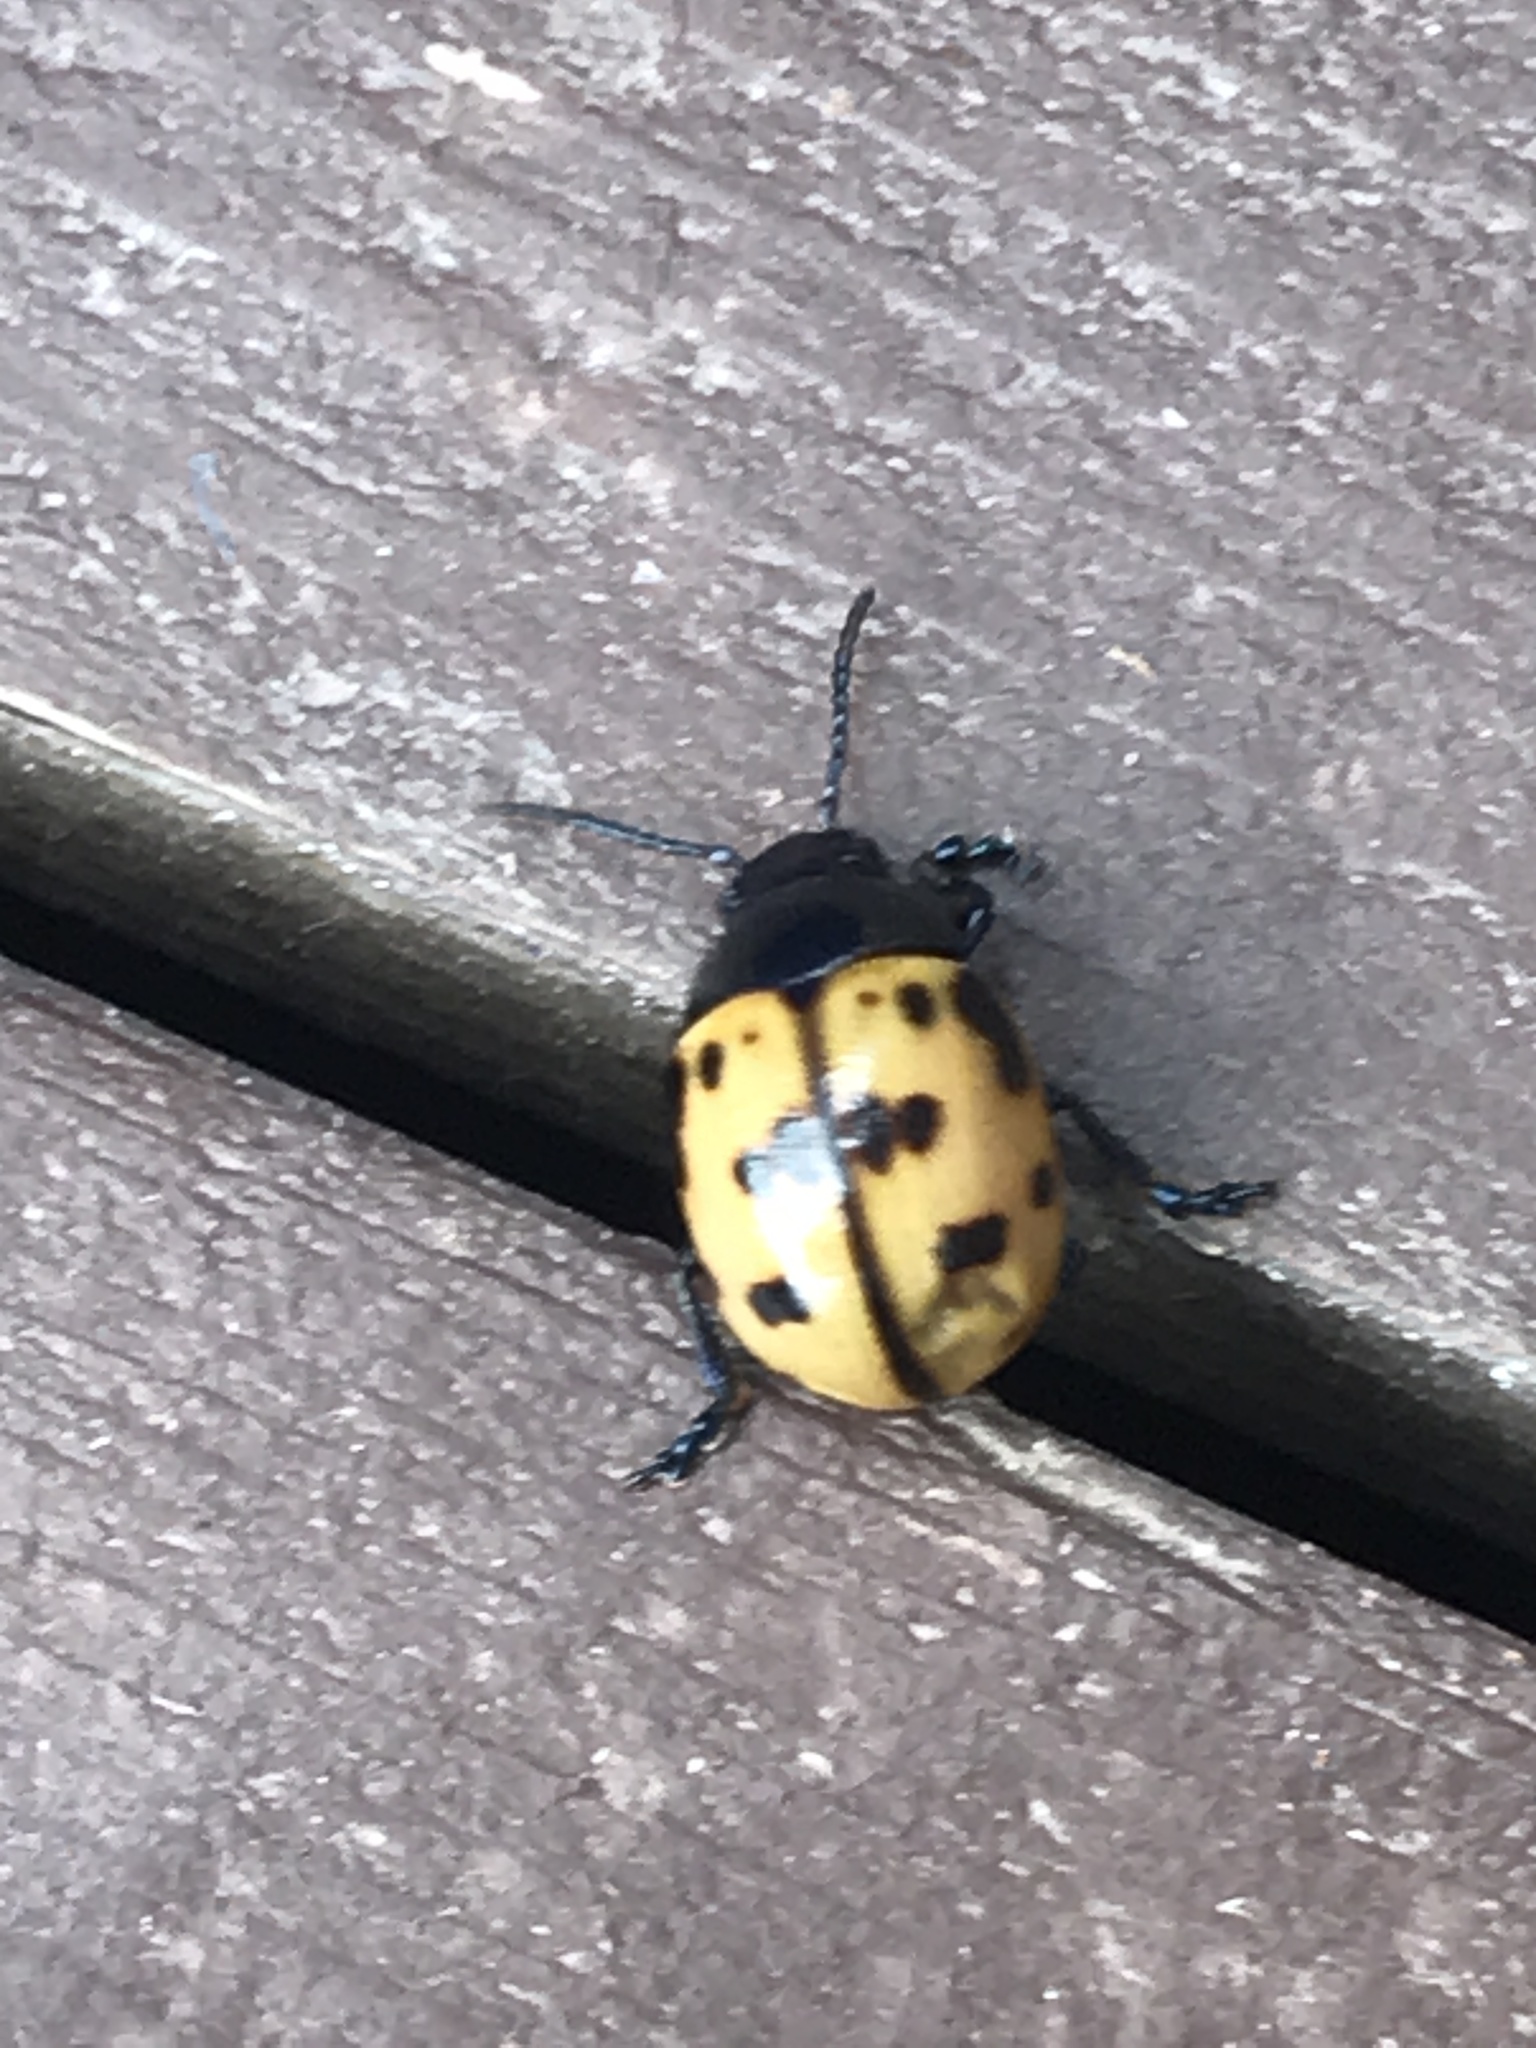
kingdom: Animalia
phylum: Arthropoda
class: Insecta
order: Coleoptera
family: Chrysomelidae
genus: Labidomera
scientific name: Labidomera clivicollis
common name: Swamp milkweed leaf beetle
